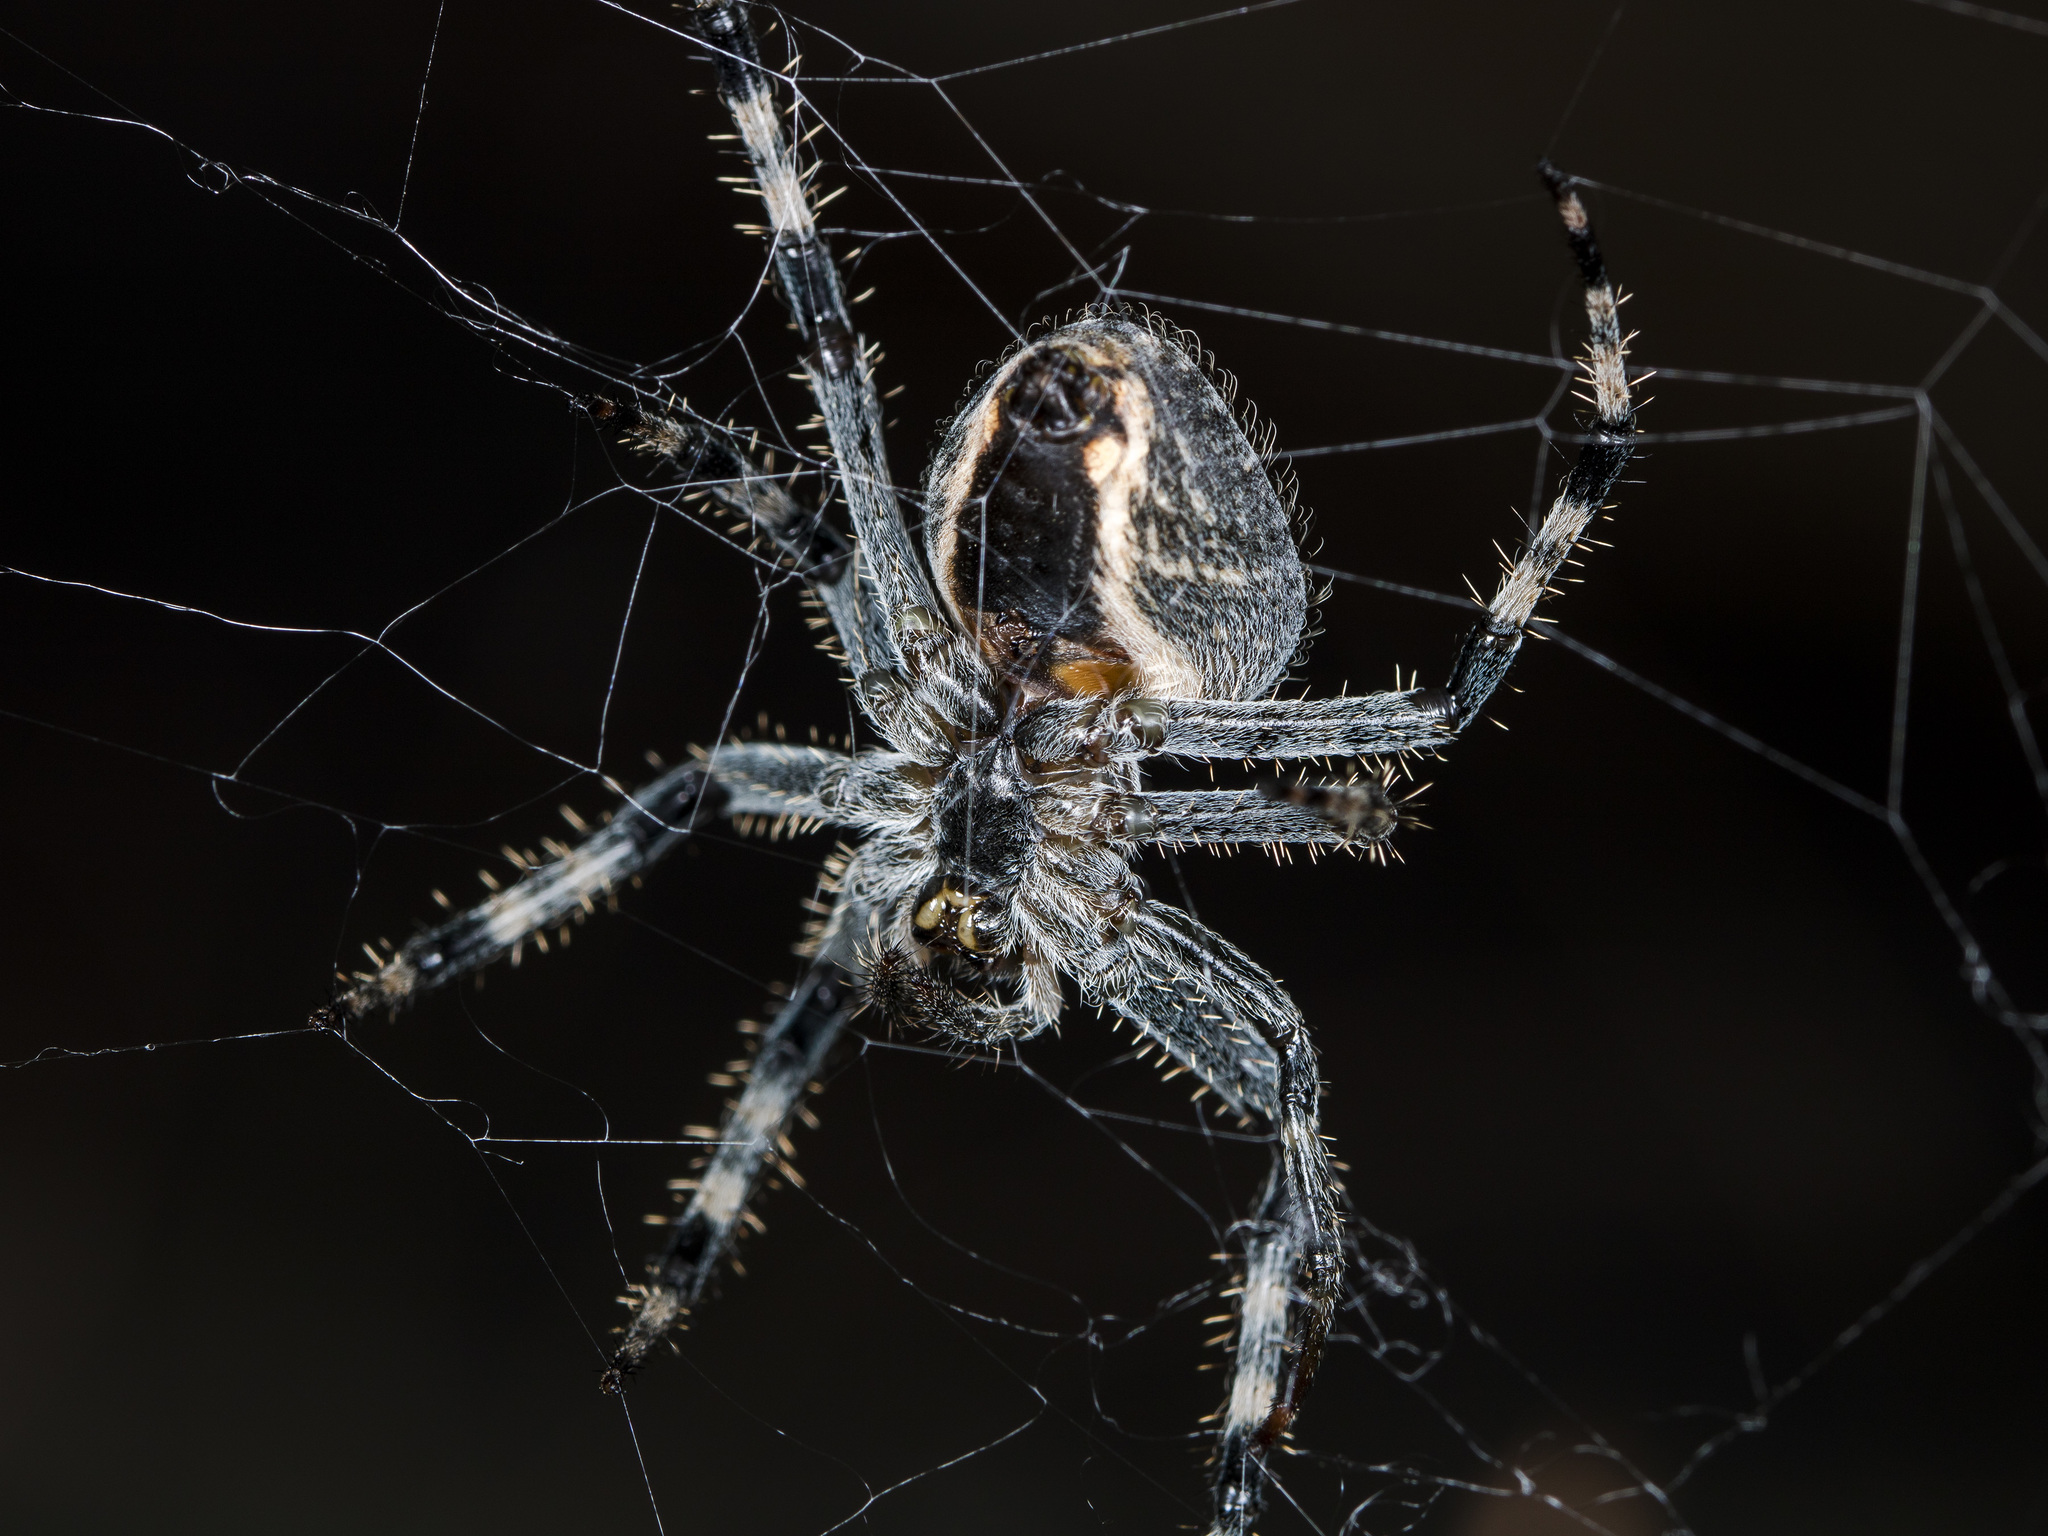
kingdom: Animalia
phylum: Arthropoda
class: Arachnida
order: Araneae
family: Araneidae
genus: Araneus
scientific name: Araneus miquanensis
